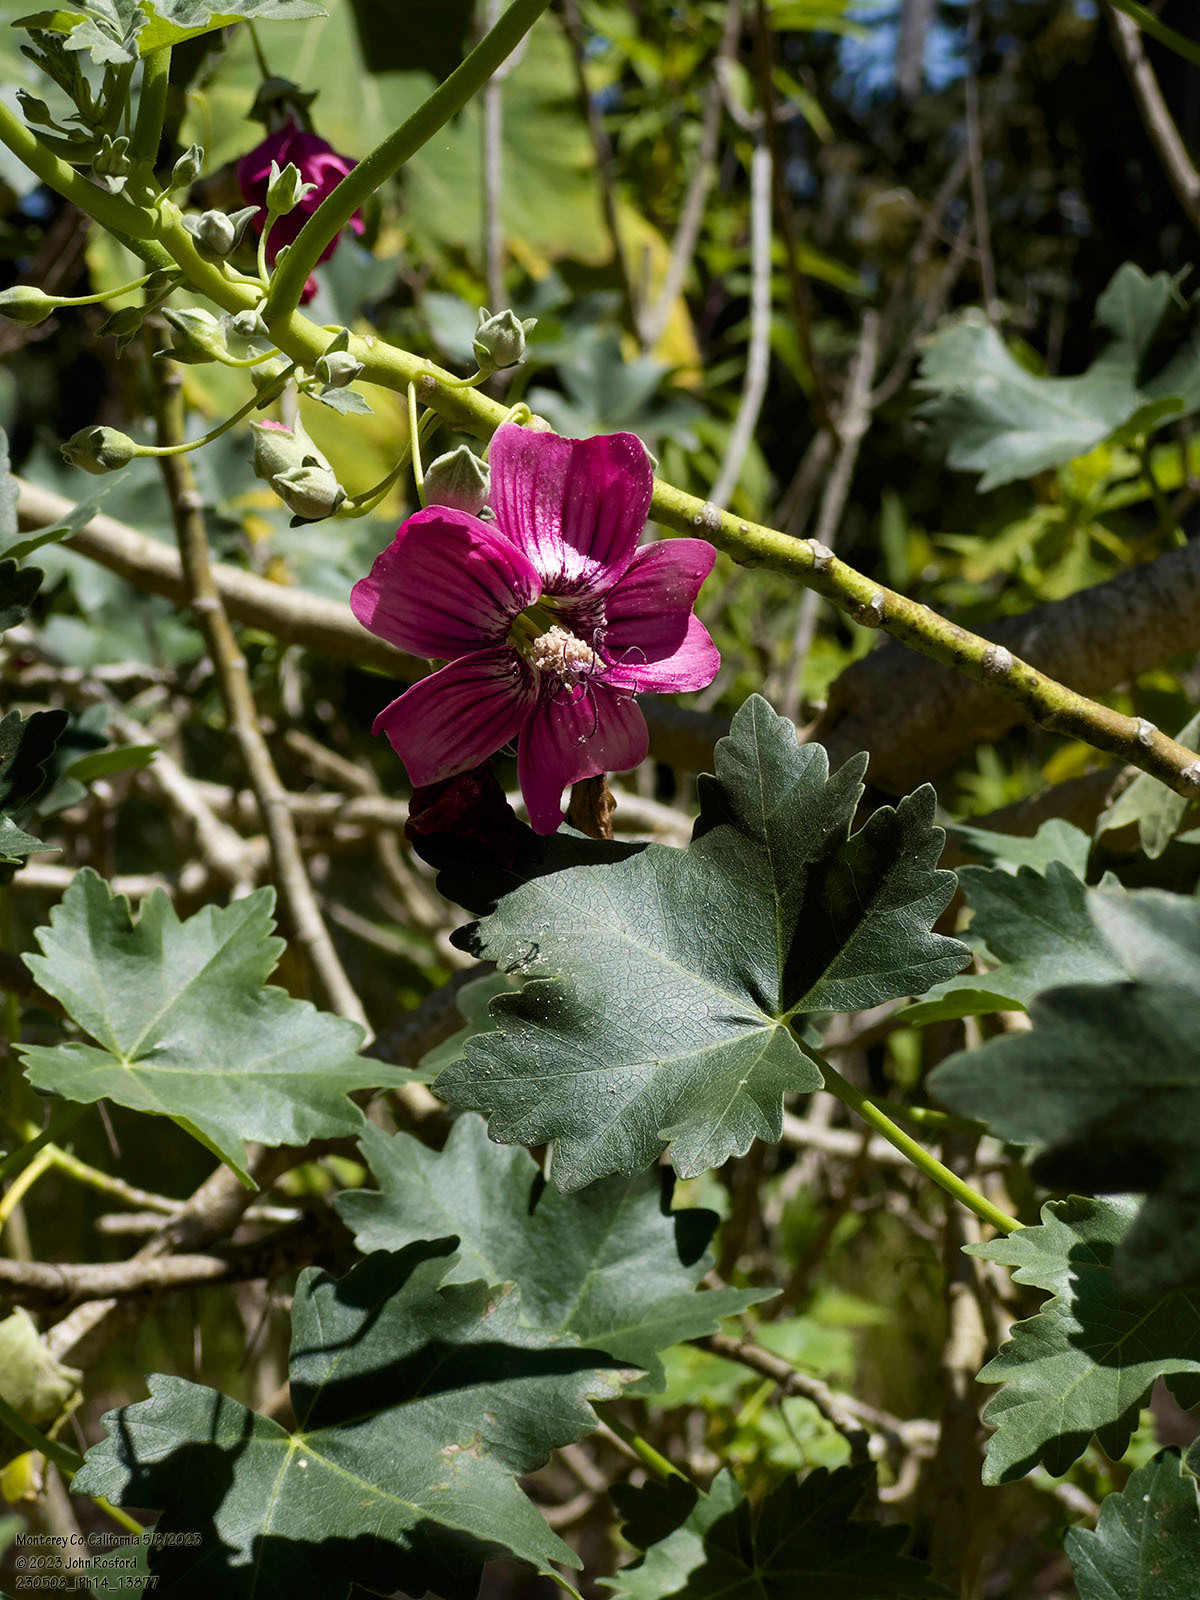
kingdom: Plantae
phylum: Tracheophyta
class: Magnoliopsida
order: Malvales
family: Malvaceae
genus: Malva
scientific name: Malva assurgentiflora
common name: Island mallow
